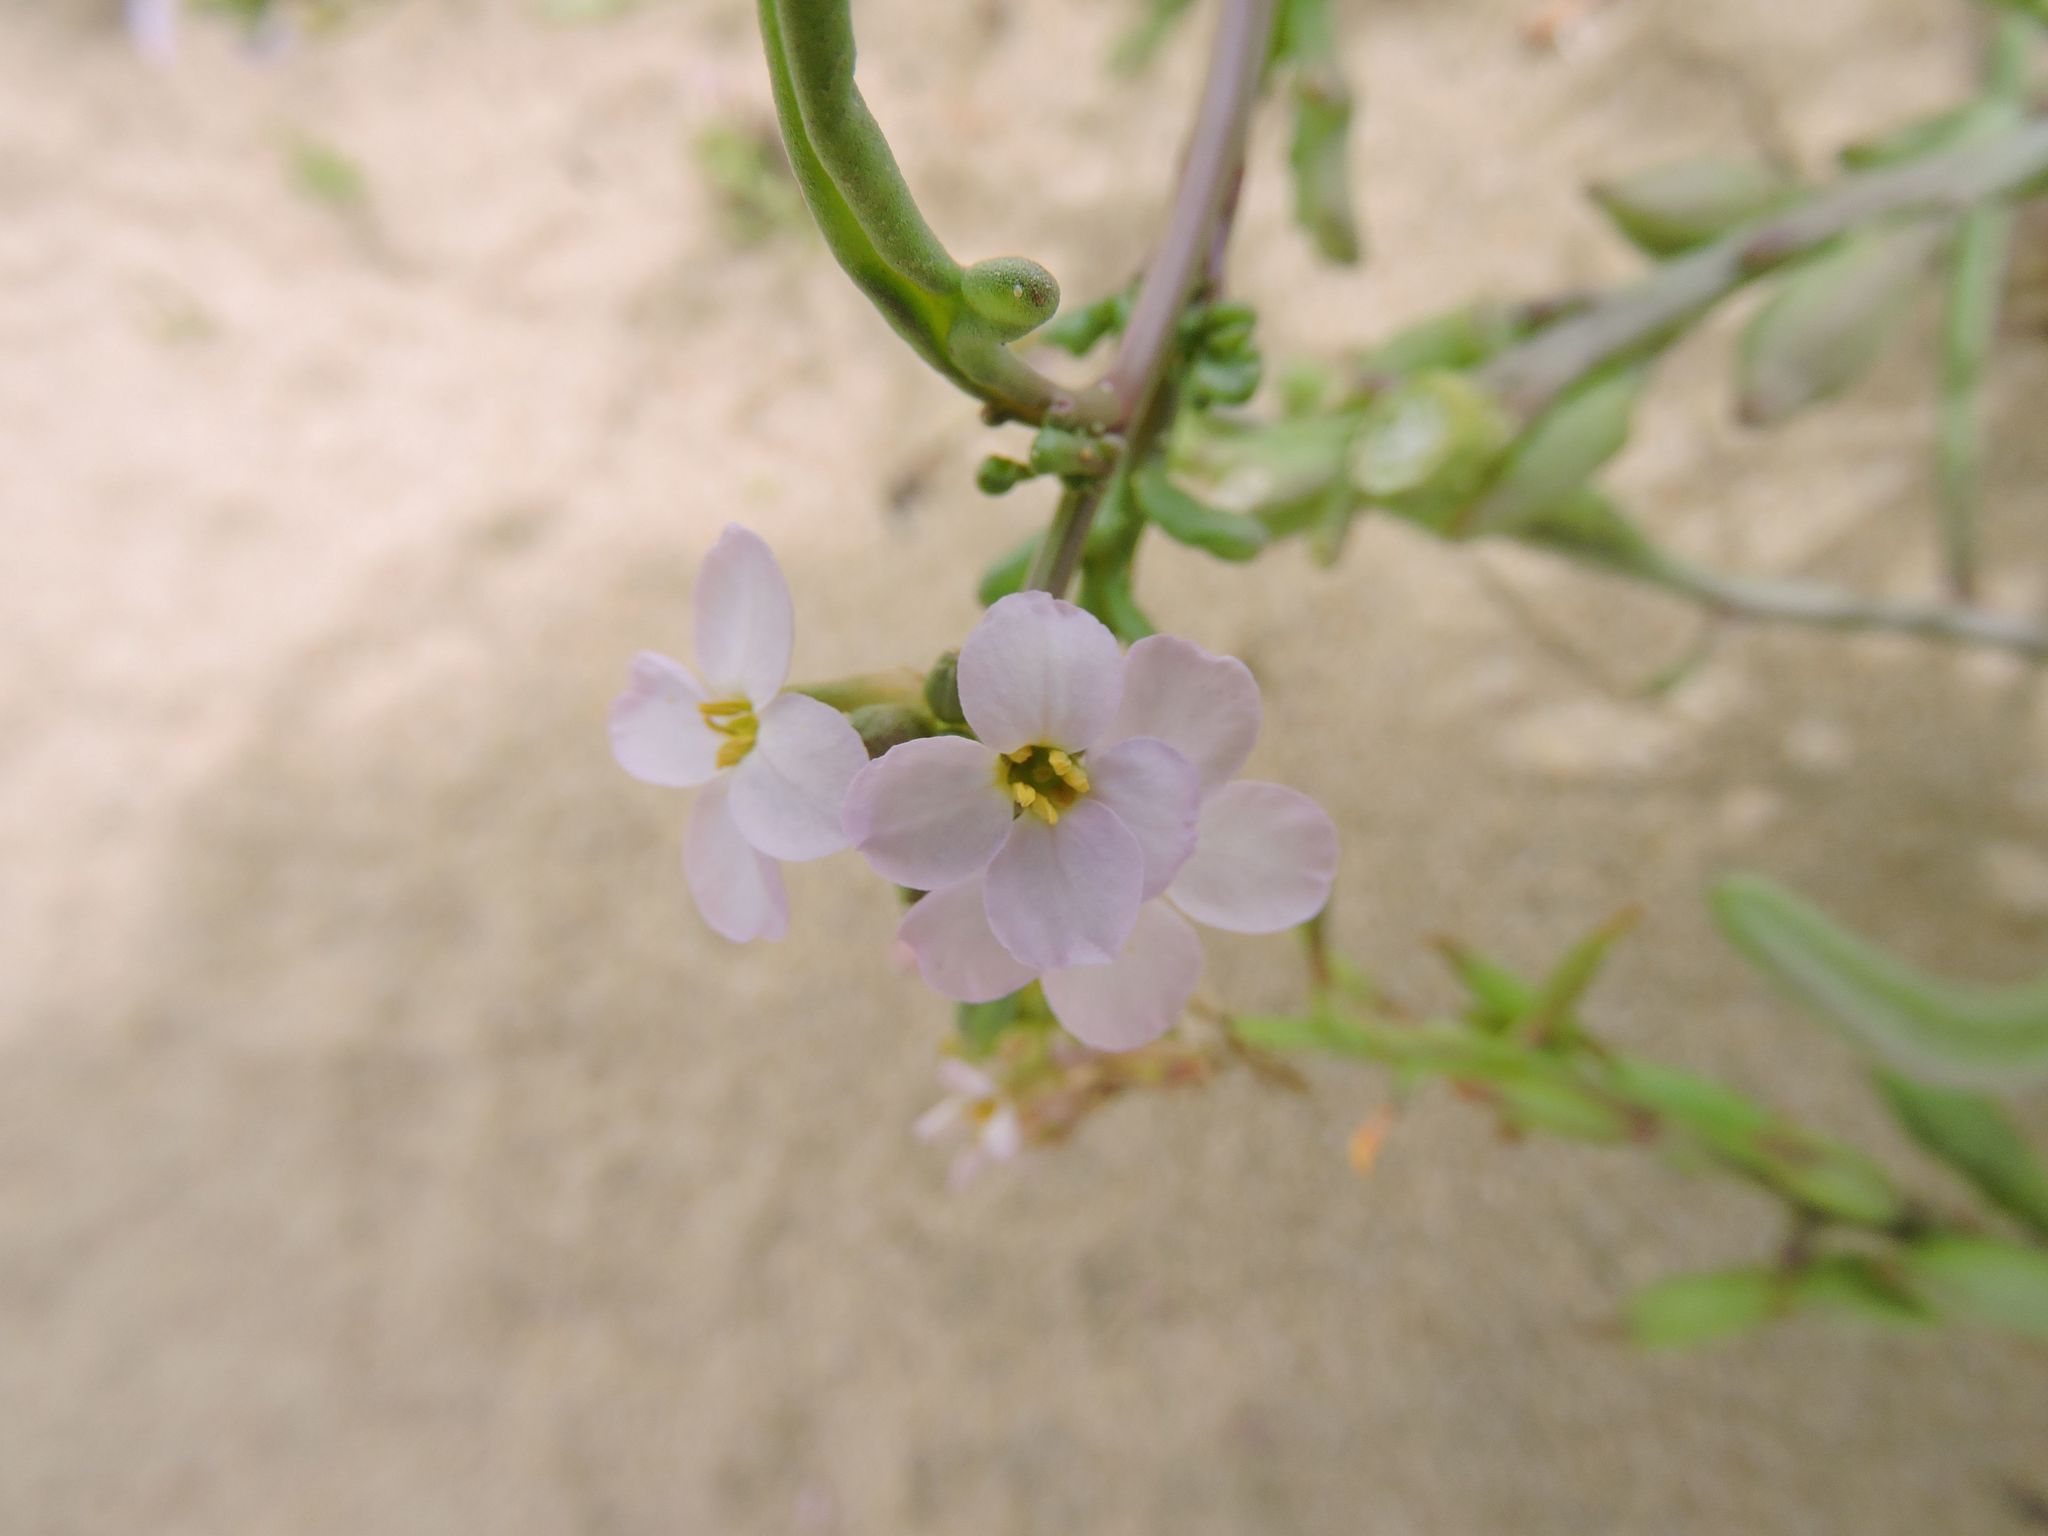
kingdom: Plantae
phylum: Tracheophyta
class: Magnoliopsida
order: Brassicales
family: Brassicaceae
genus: Cakile
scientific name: Cakile maritima
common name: Sea rocket
